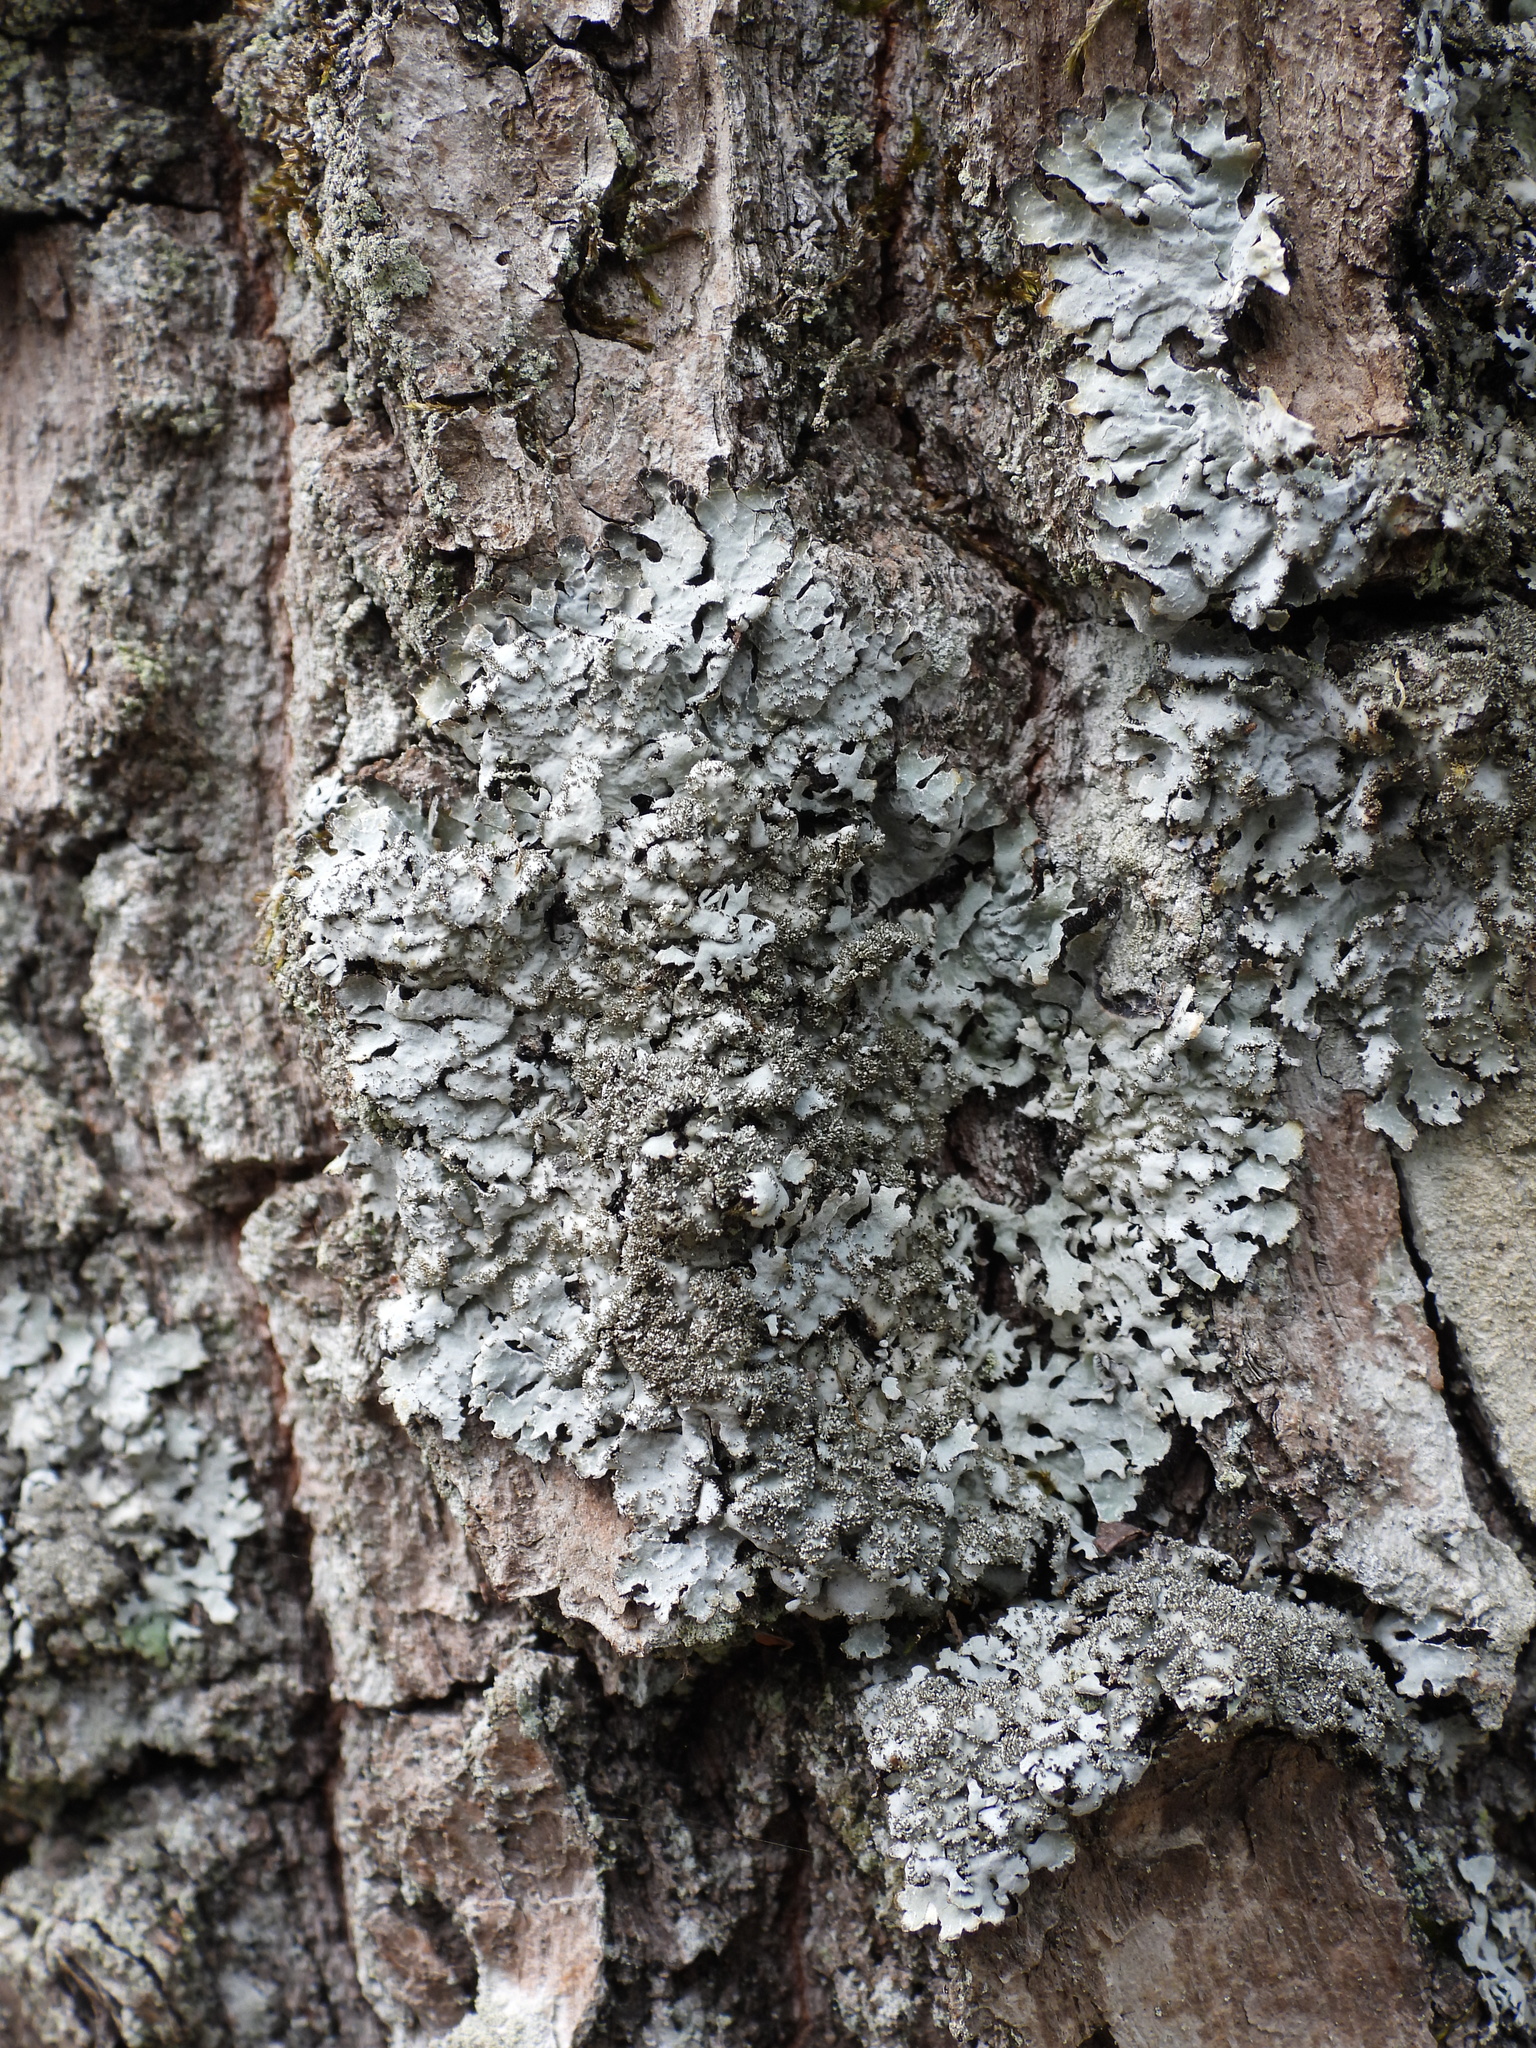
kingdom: Fungi
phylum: Ascomycota
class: Lecanoromycetes
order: Lecanorales
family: Parmeliaceae
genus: Parmelia
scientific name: Parmelia ernstiae
